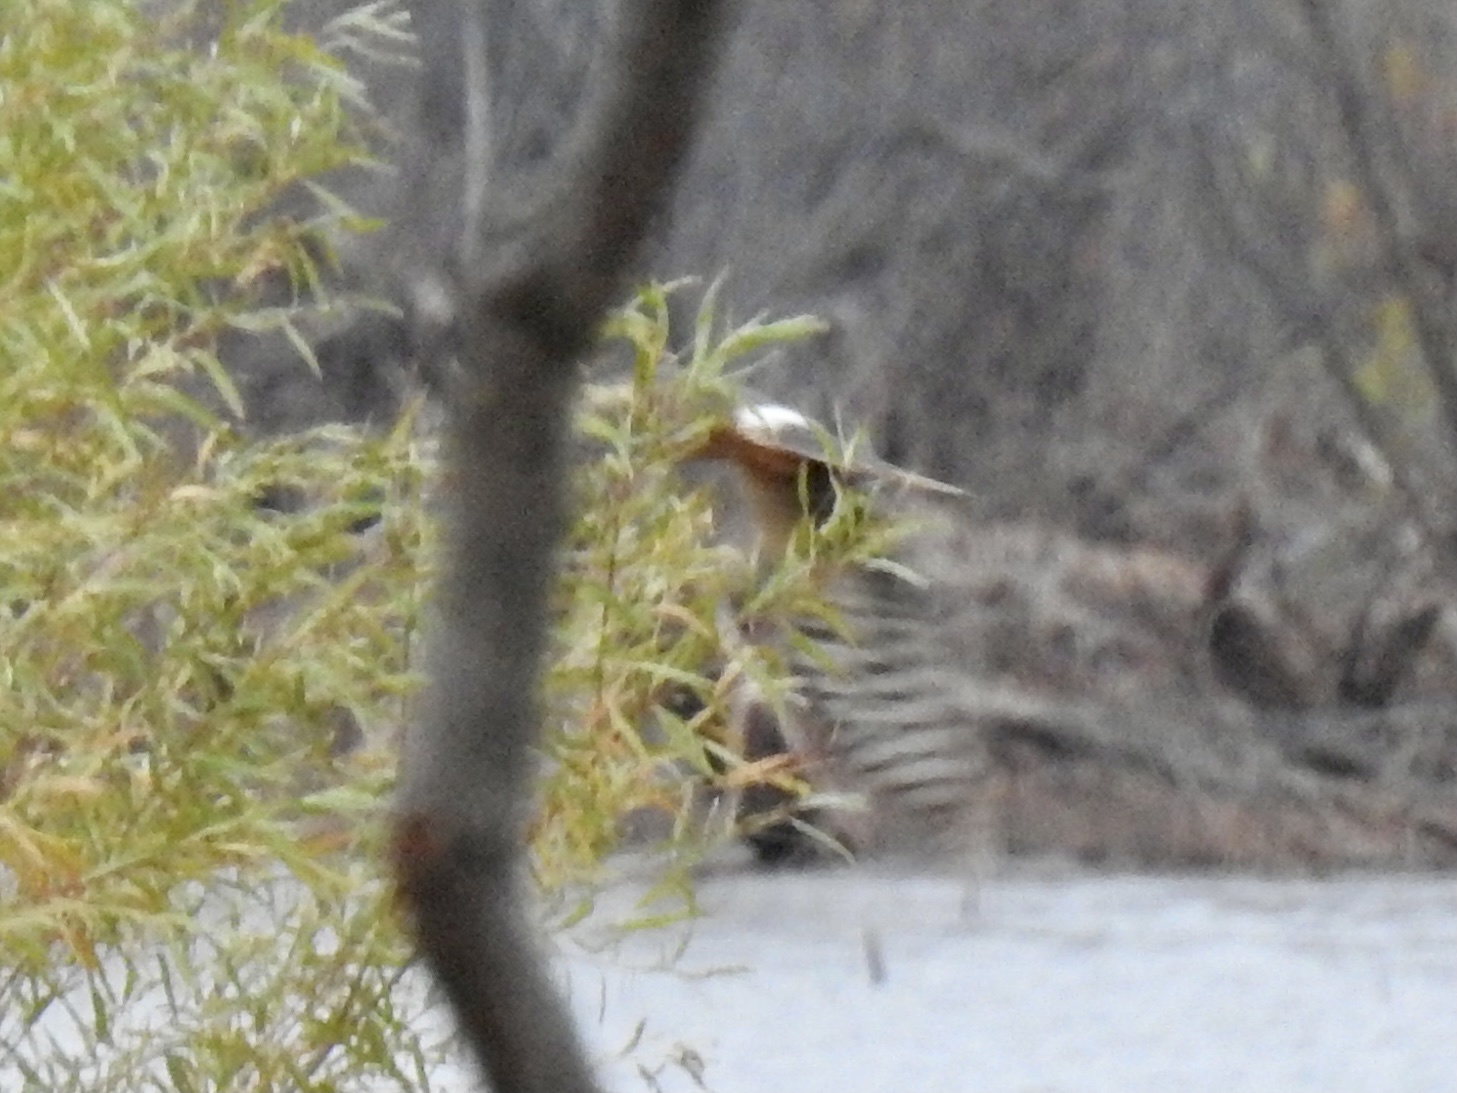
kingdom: Animalia
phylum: Chordata
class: Aves
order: Accipitriformes
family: Accipitridae
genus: Circus
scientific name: Circus cyaneus
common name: Hen harrier
